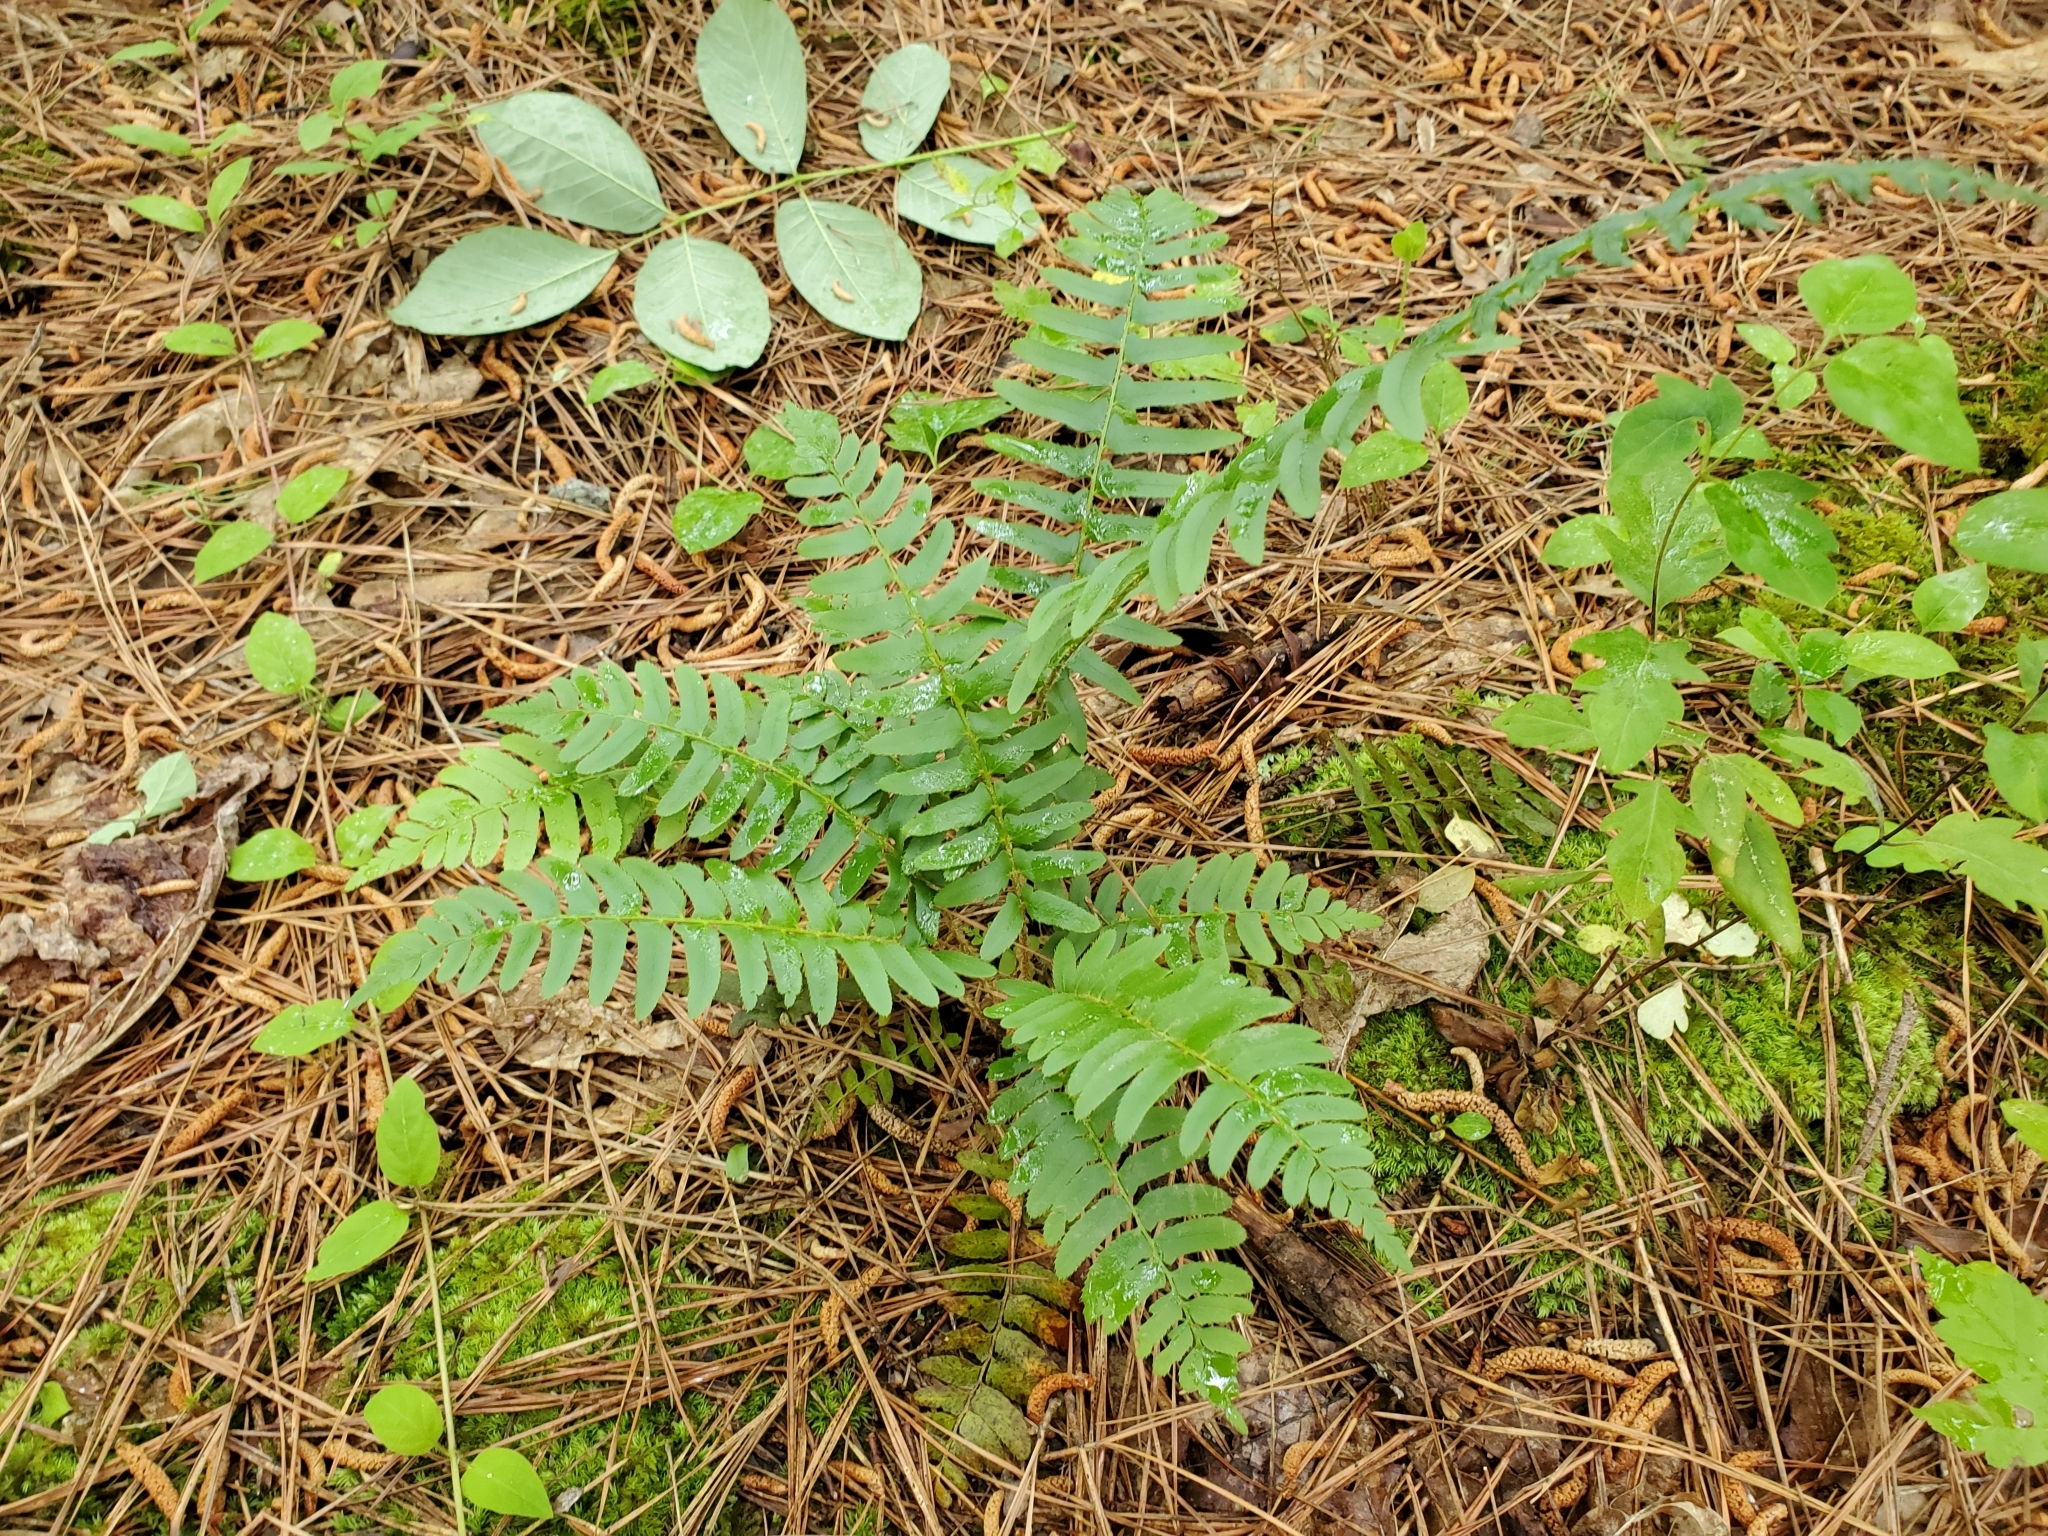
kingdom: Plantae
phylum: Tracheophyta
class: Polypodiopsida
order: Polypodiales
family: Dryopteridaceae
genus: Polystichum
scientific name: Polystichum acrostichoides
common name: Christmas fern
